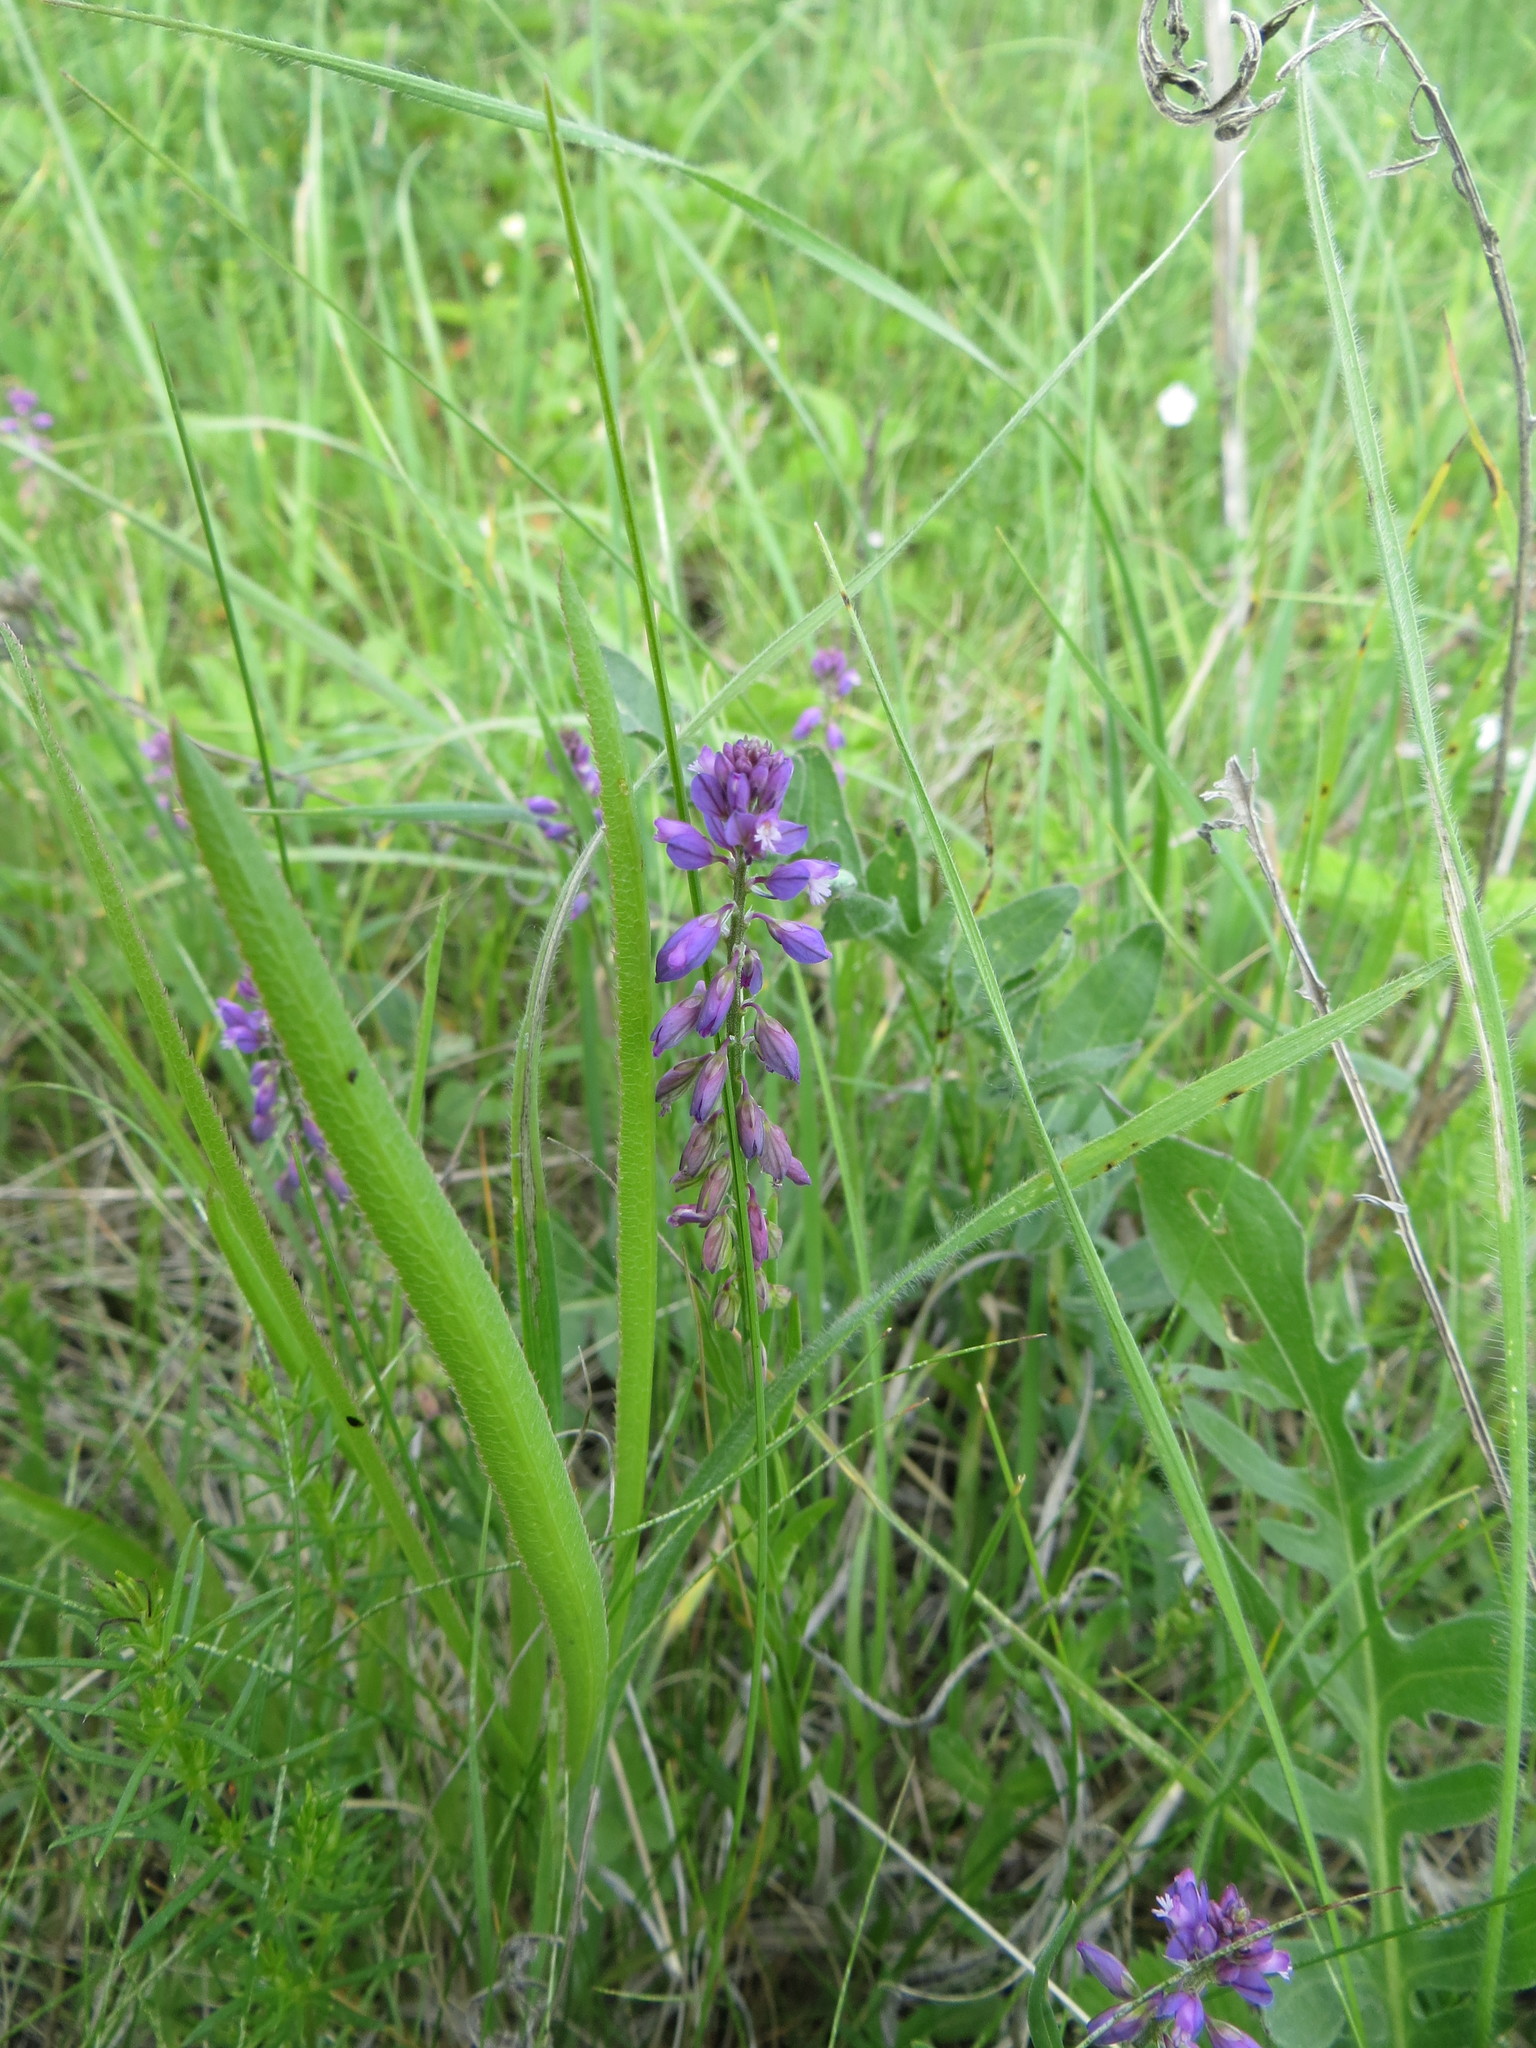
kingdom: Plantae
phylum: Tracheophyta
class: Magnoliopsida
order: Fabales
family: Polygalaceae
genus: Polygala
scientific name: Polygala comosa
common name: Tufted milkwort
